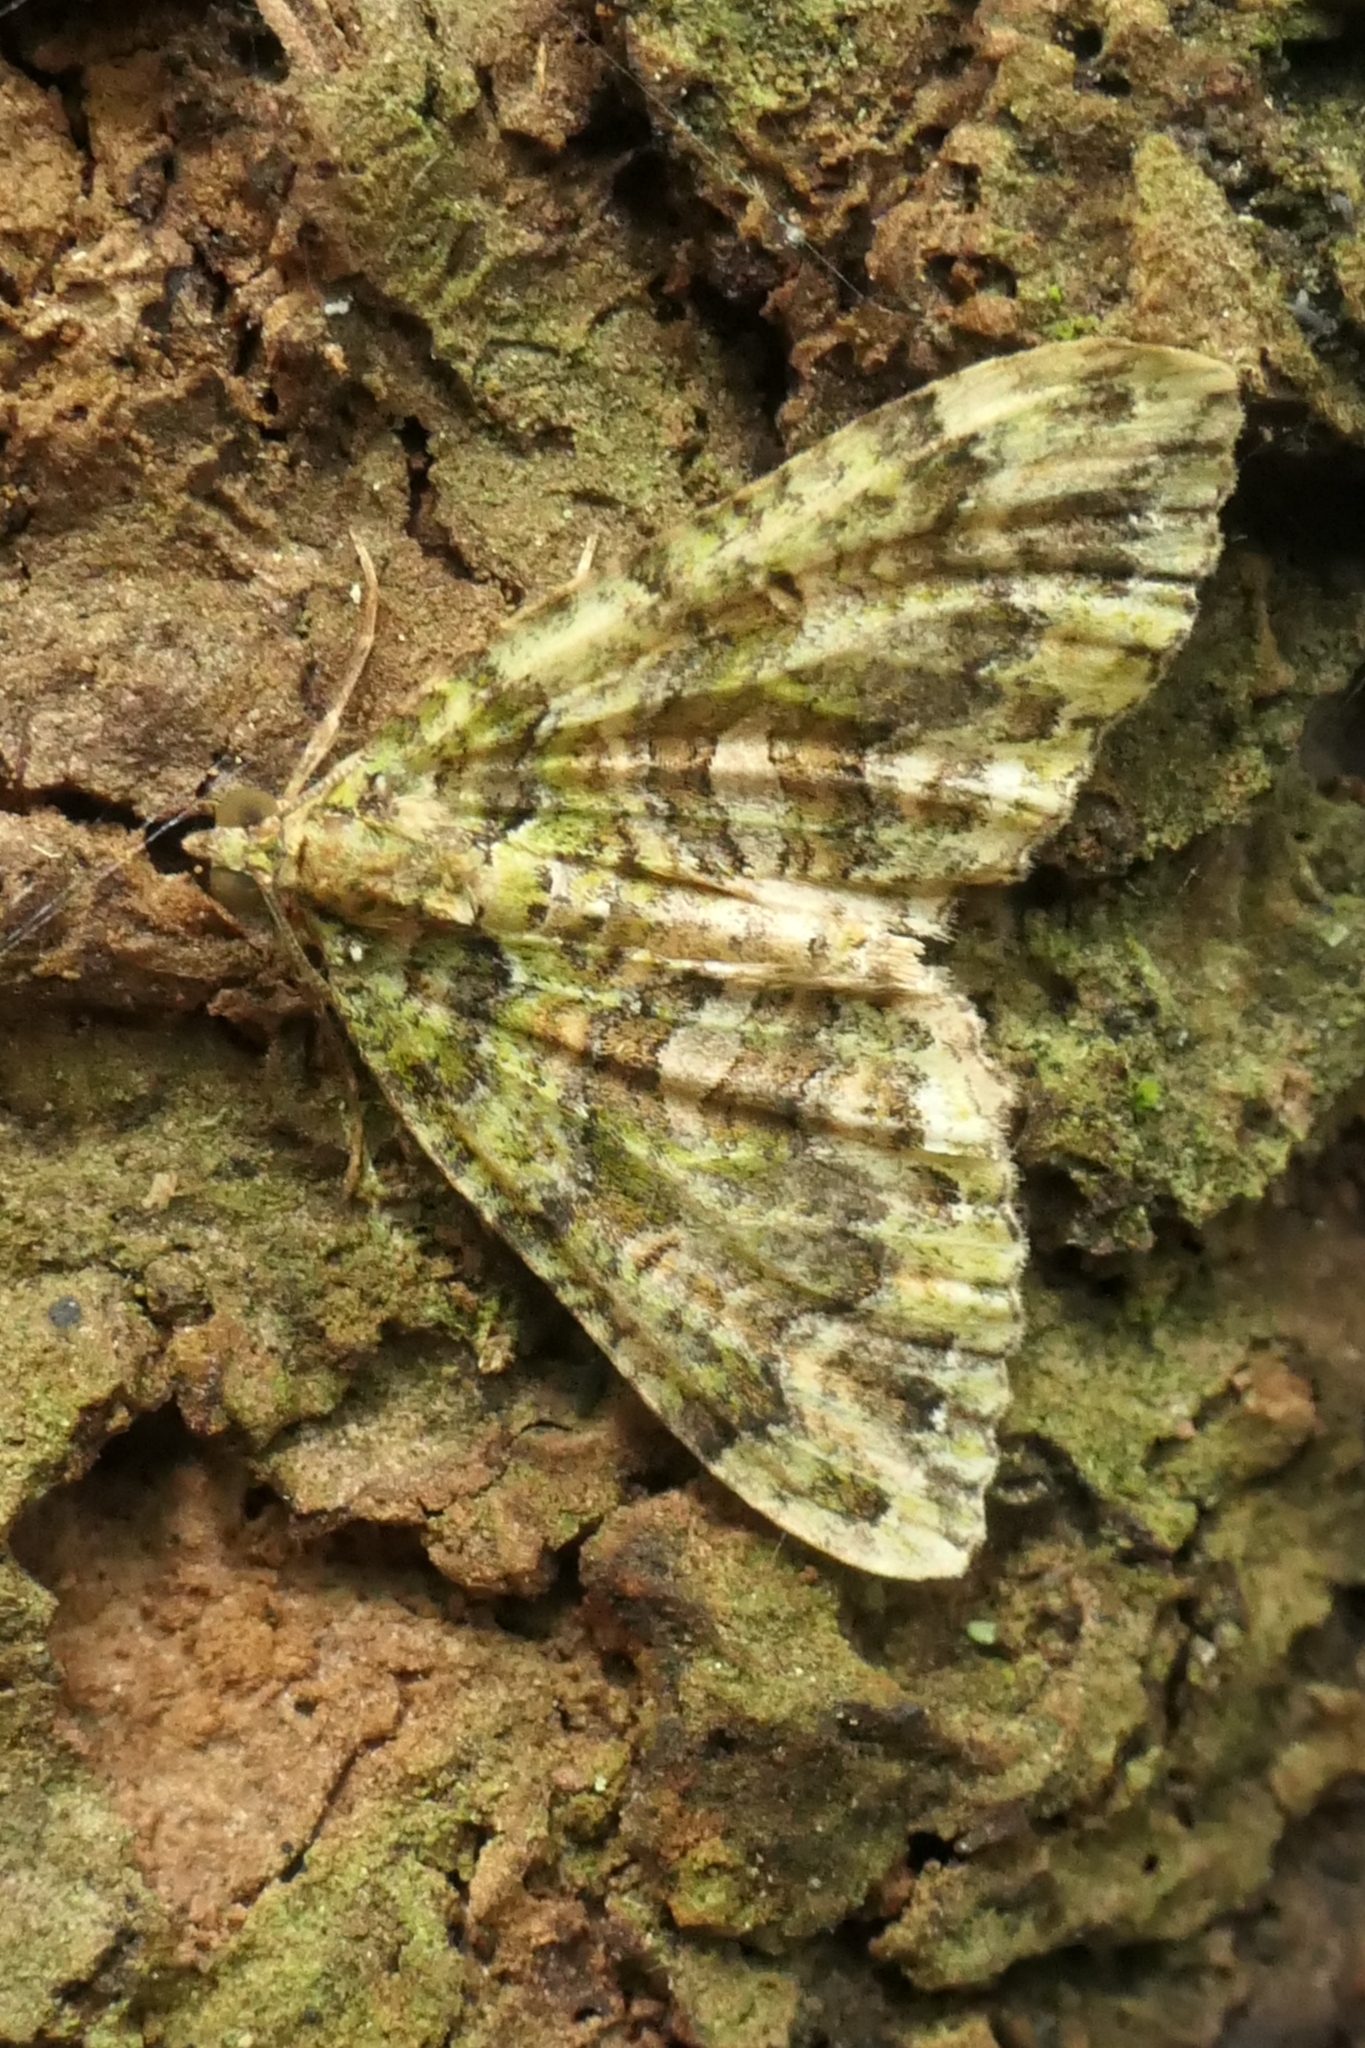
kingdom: Animalia
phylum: Arthropoda
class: Insecta
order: Lepidoptera
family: Geometridae
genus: Austrocidaria
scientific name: Austrocidaria similata
